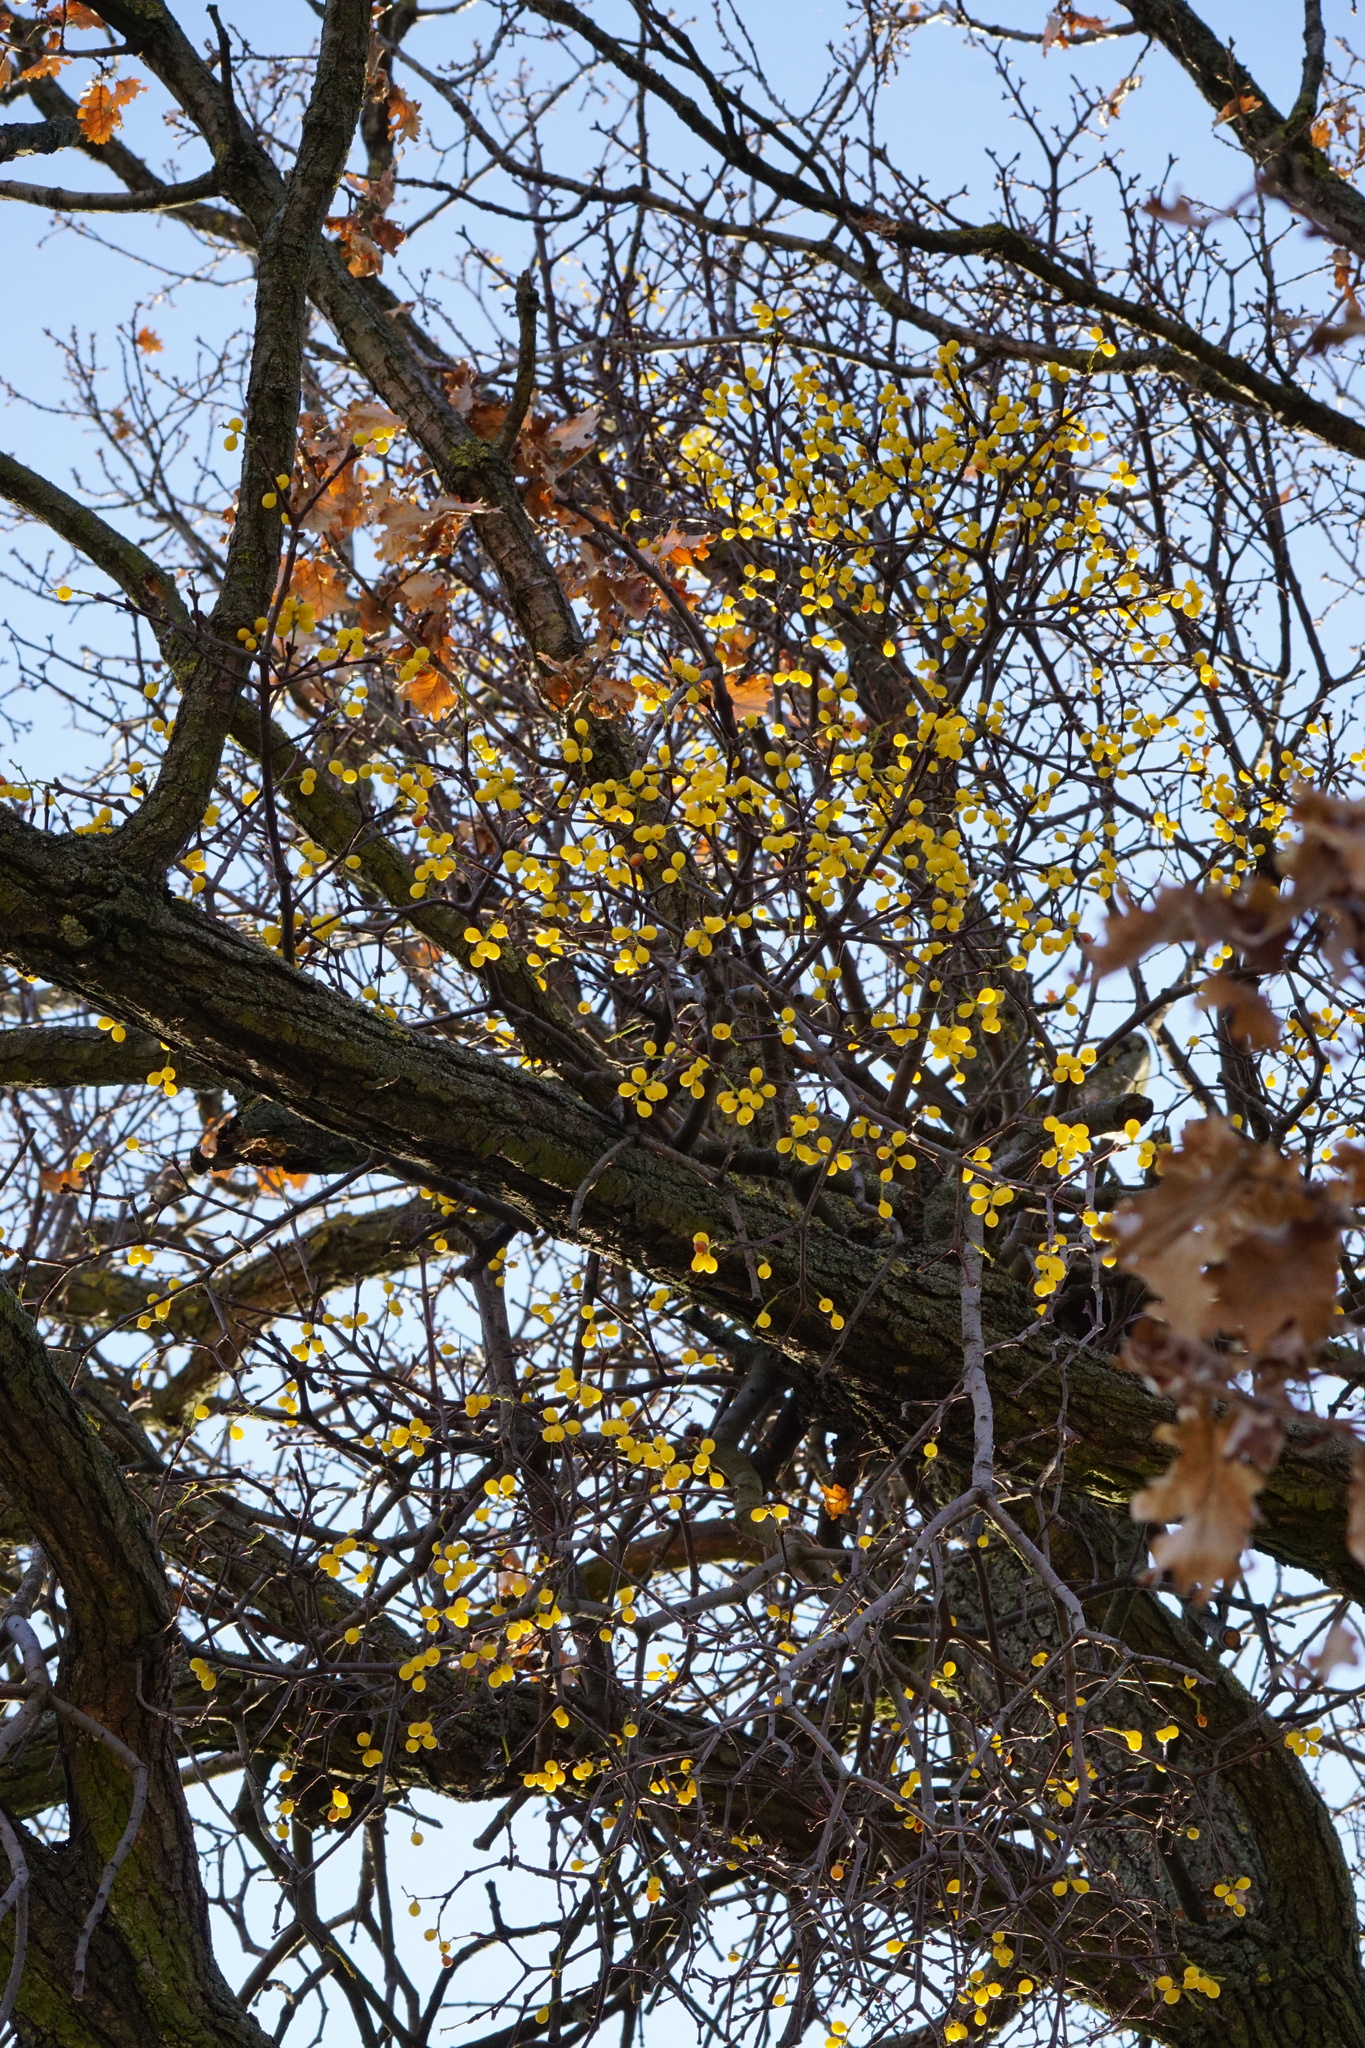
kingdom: Plantae
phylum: Tracheophyta
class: Magnoliopsida
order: Santalales
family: Loranthaceae
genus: Loranthus
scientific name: Loranthus europaeus
